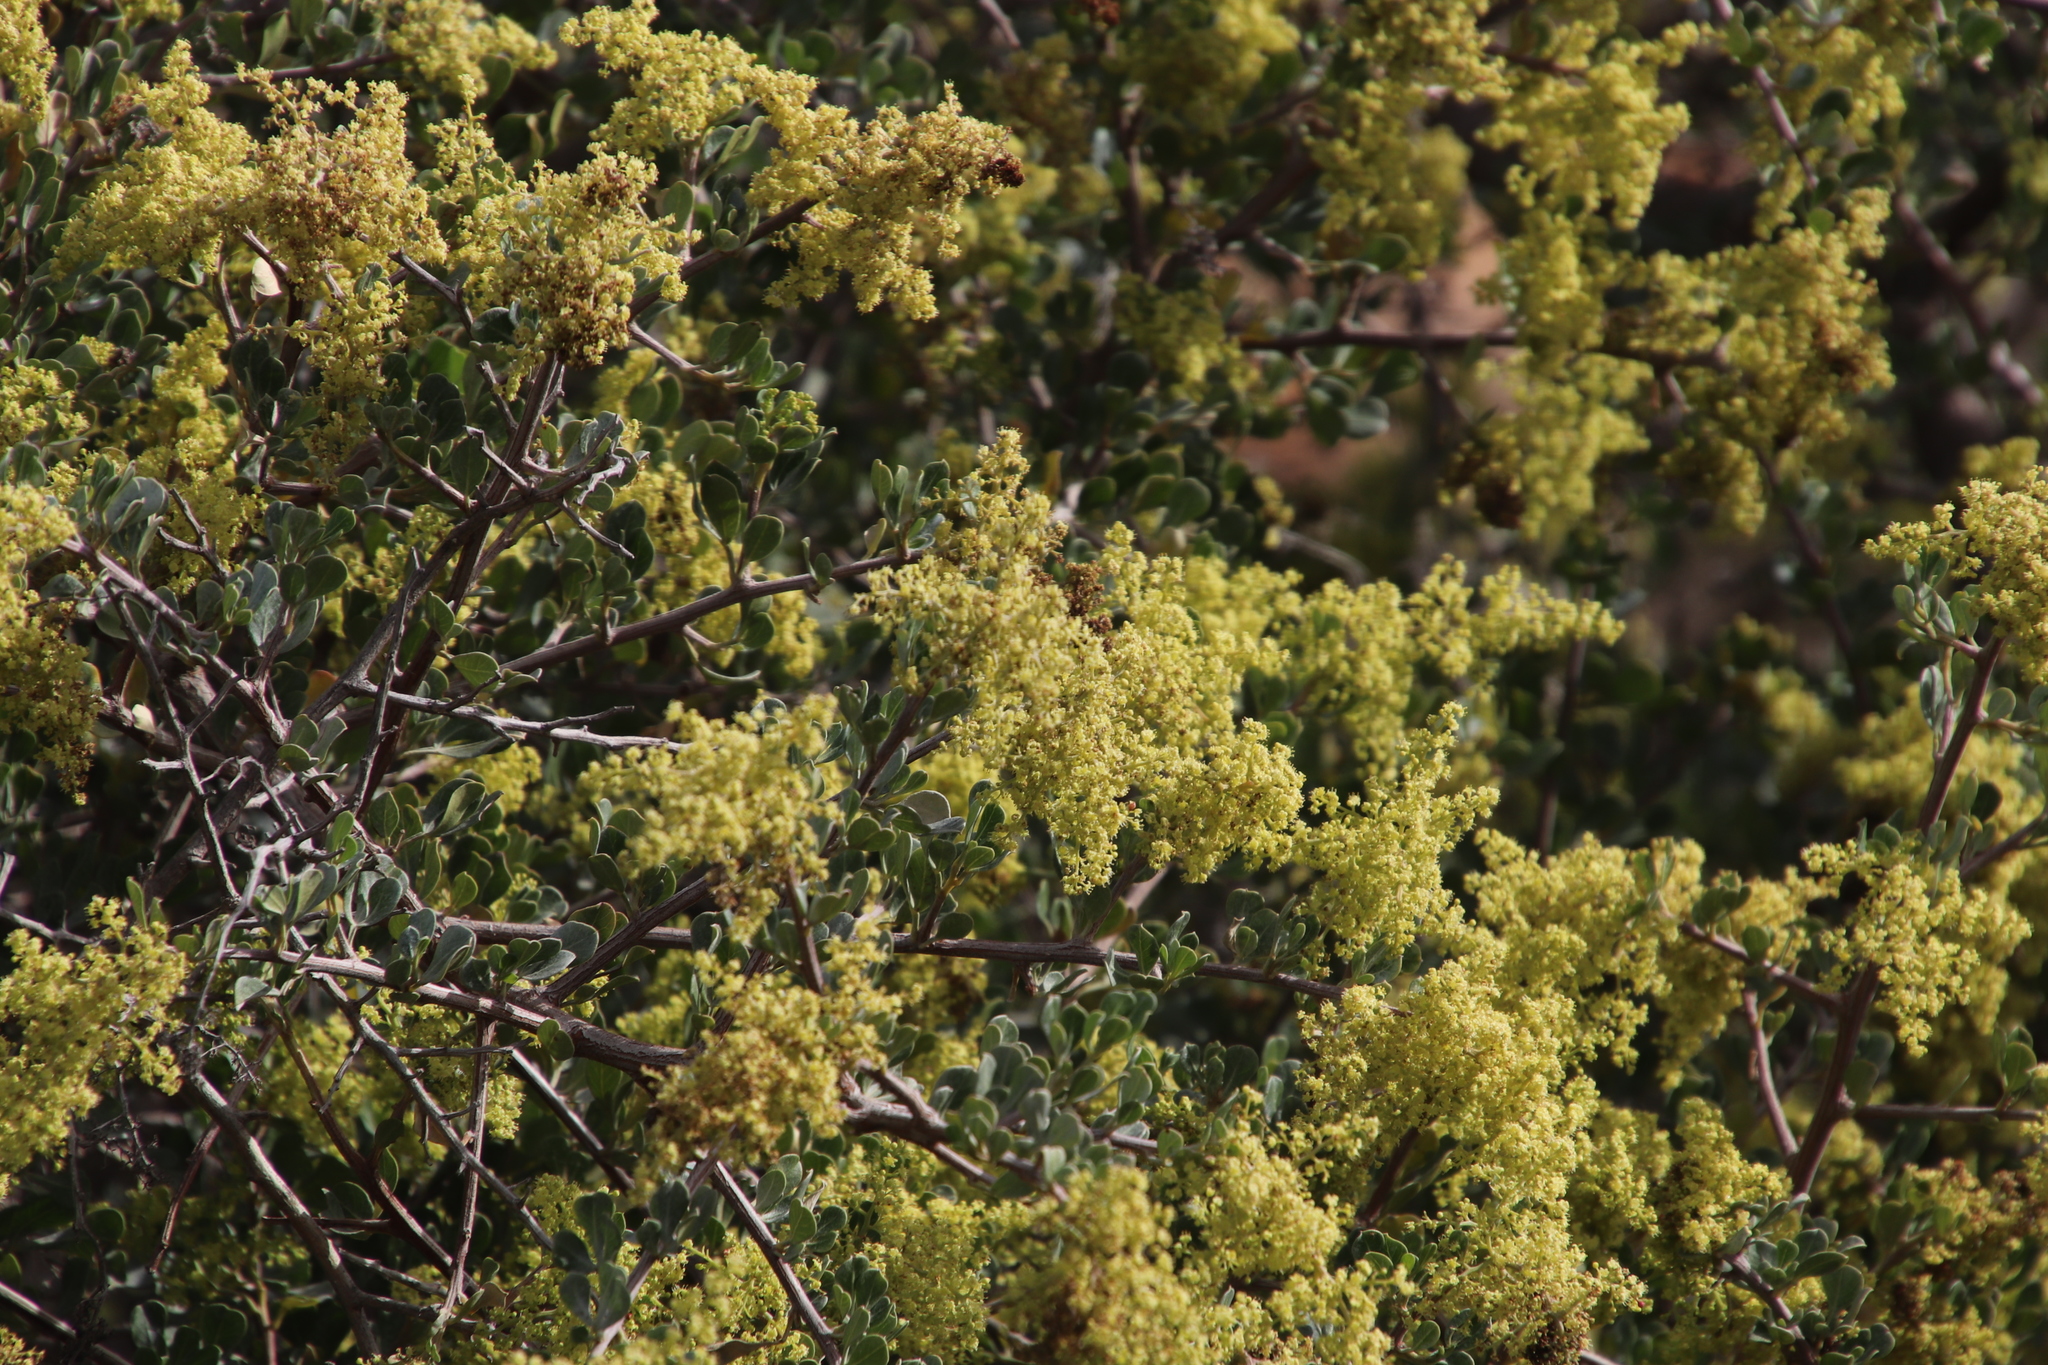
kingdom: Plantae
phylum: Tracheophyta
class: Magnoliopsida
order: Sapindales
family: Anacardiaceae
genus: Searsia
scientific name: Searsia glauca
